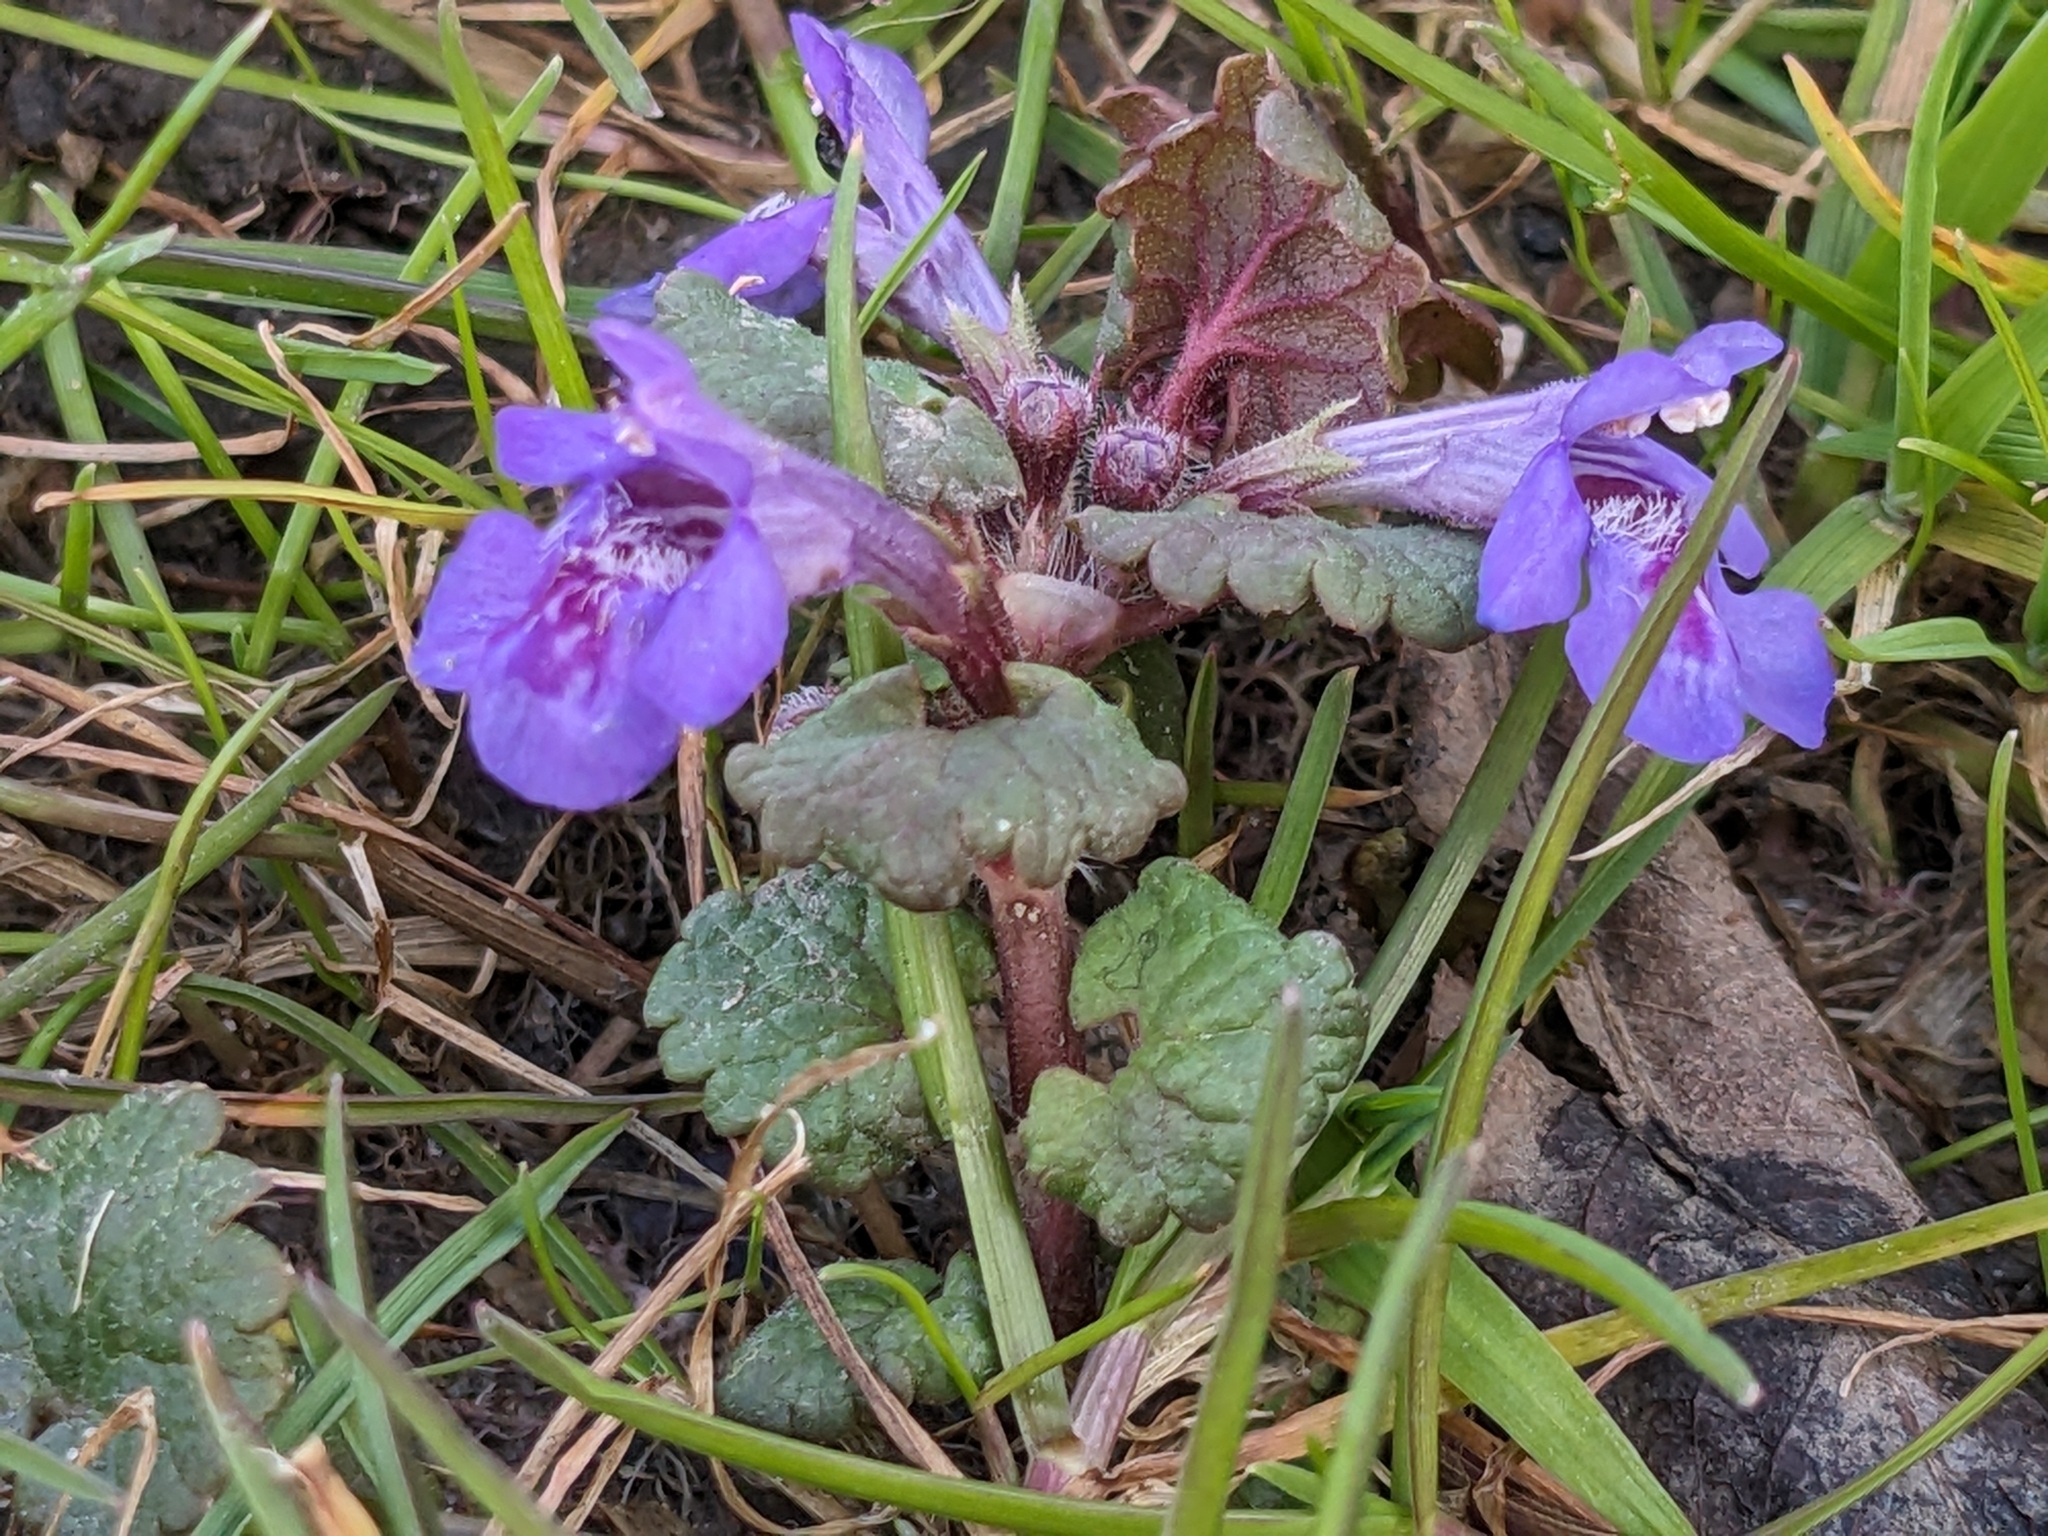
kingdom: Plantae
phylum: Tracheophyta
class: Magnoliopsida
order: Lamiales
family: Lamiaceae
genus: Glechoma
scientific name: Glechoma hederacea
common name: Ground ivy
